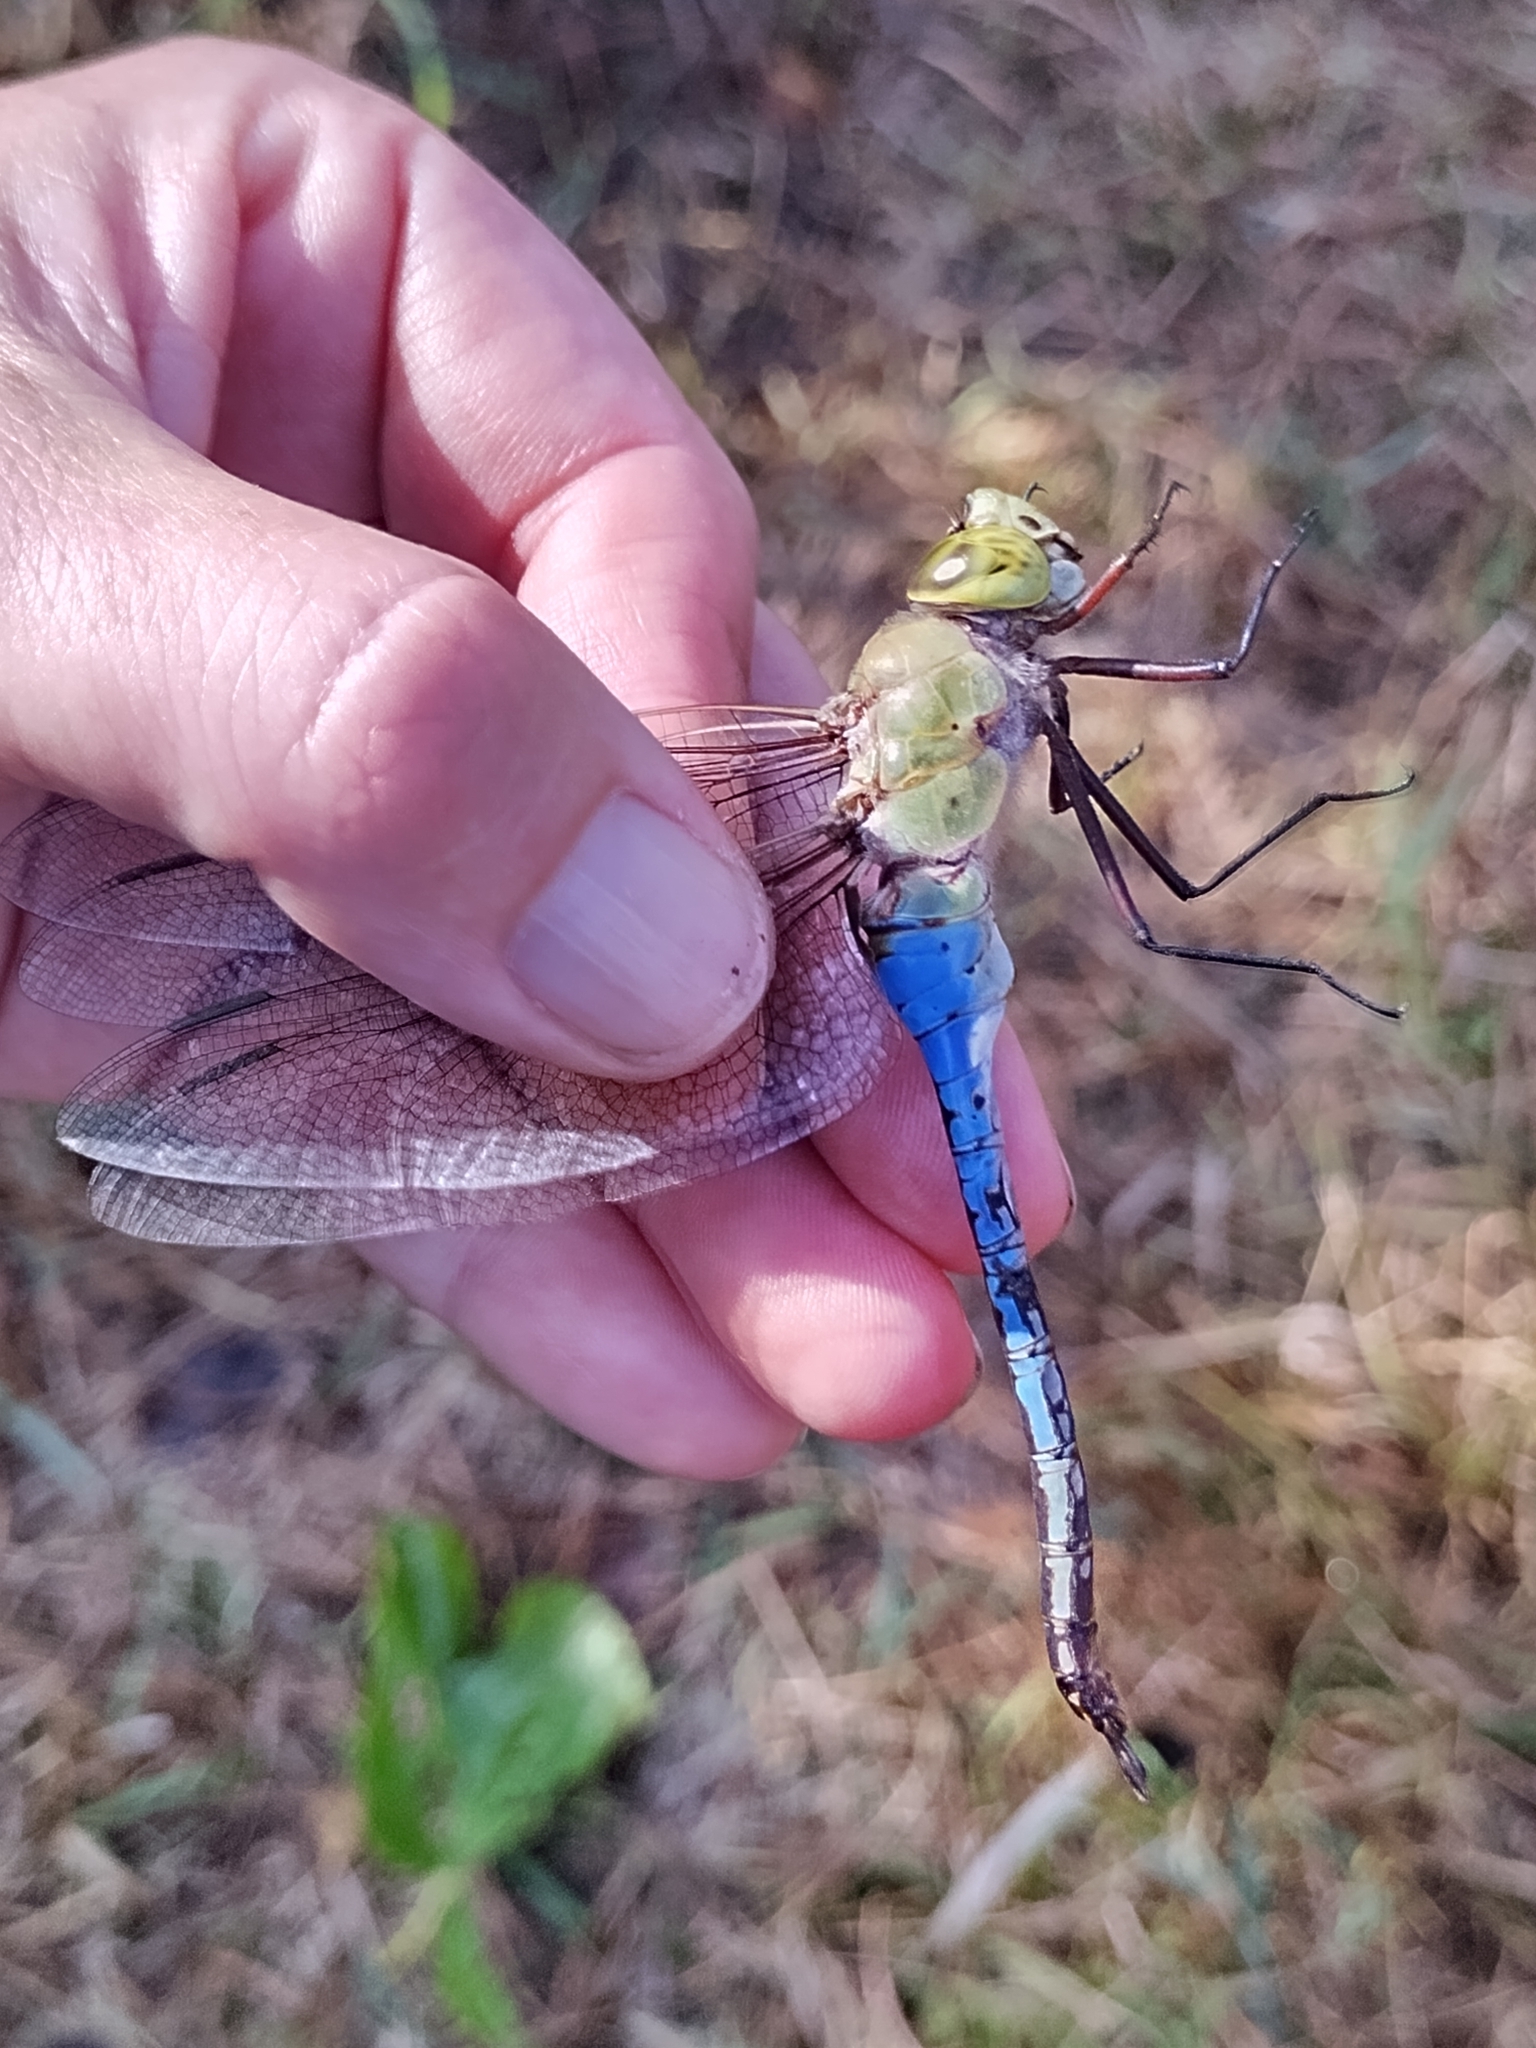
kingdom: Animalia
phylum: Arthropoda
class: Insecta
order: Odonata
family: Aeshnidae
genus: Anax
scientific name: Anax junius
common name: Common green darner
